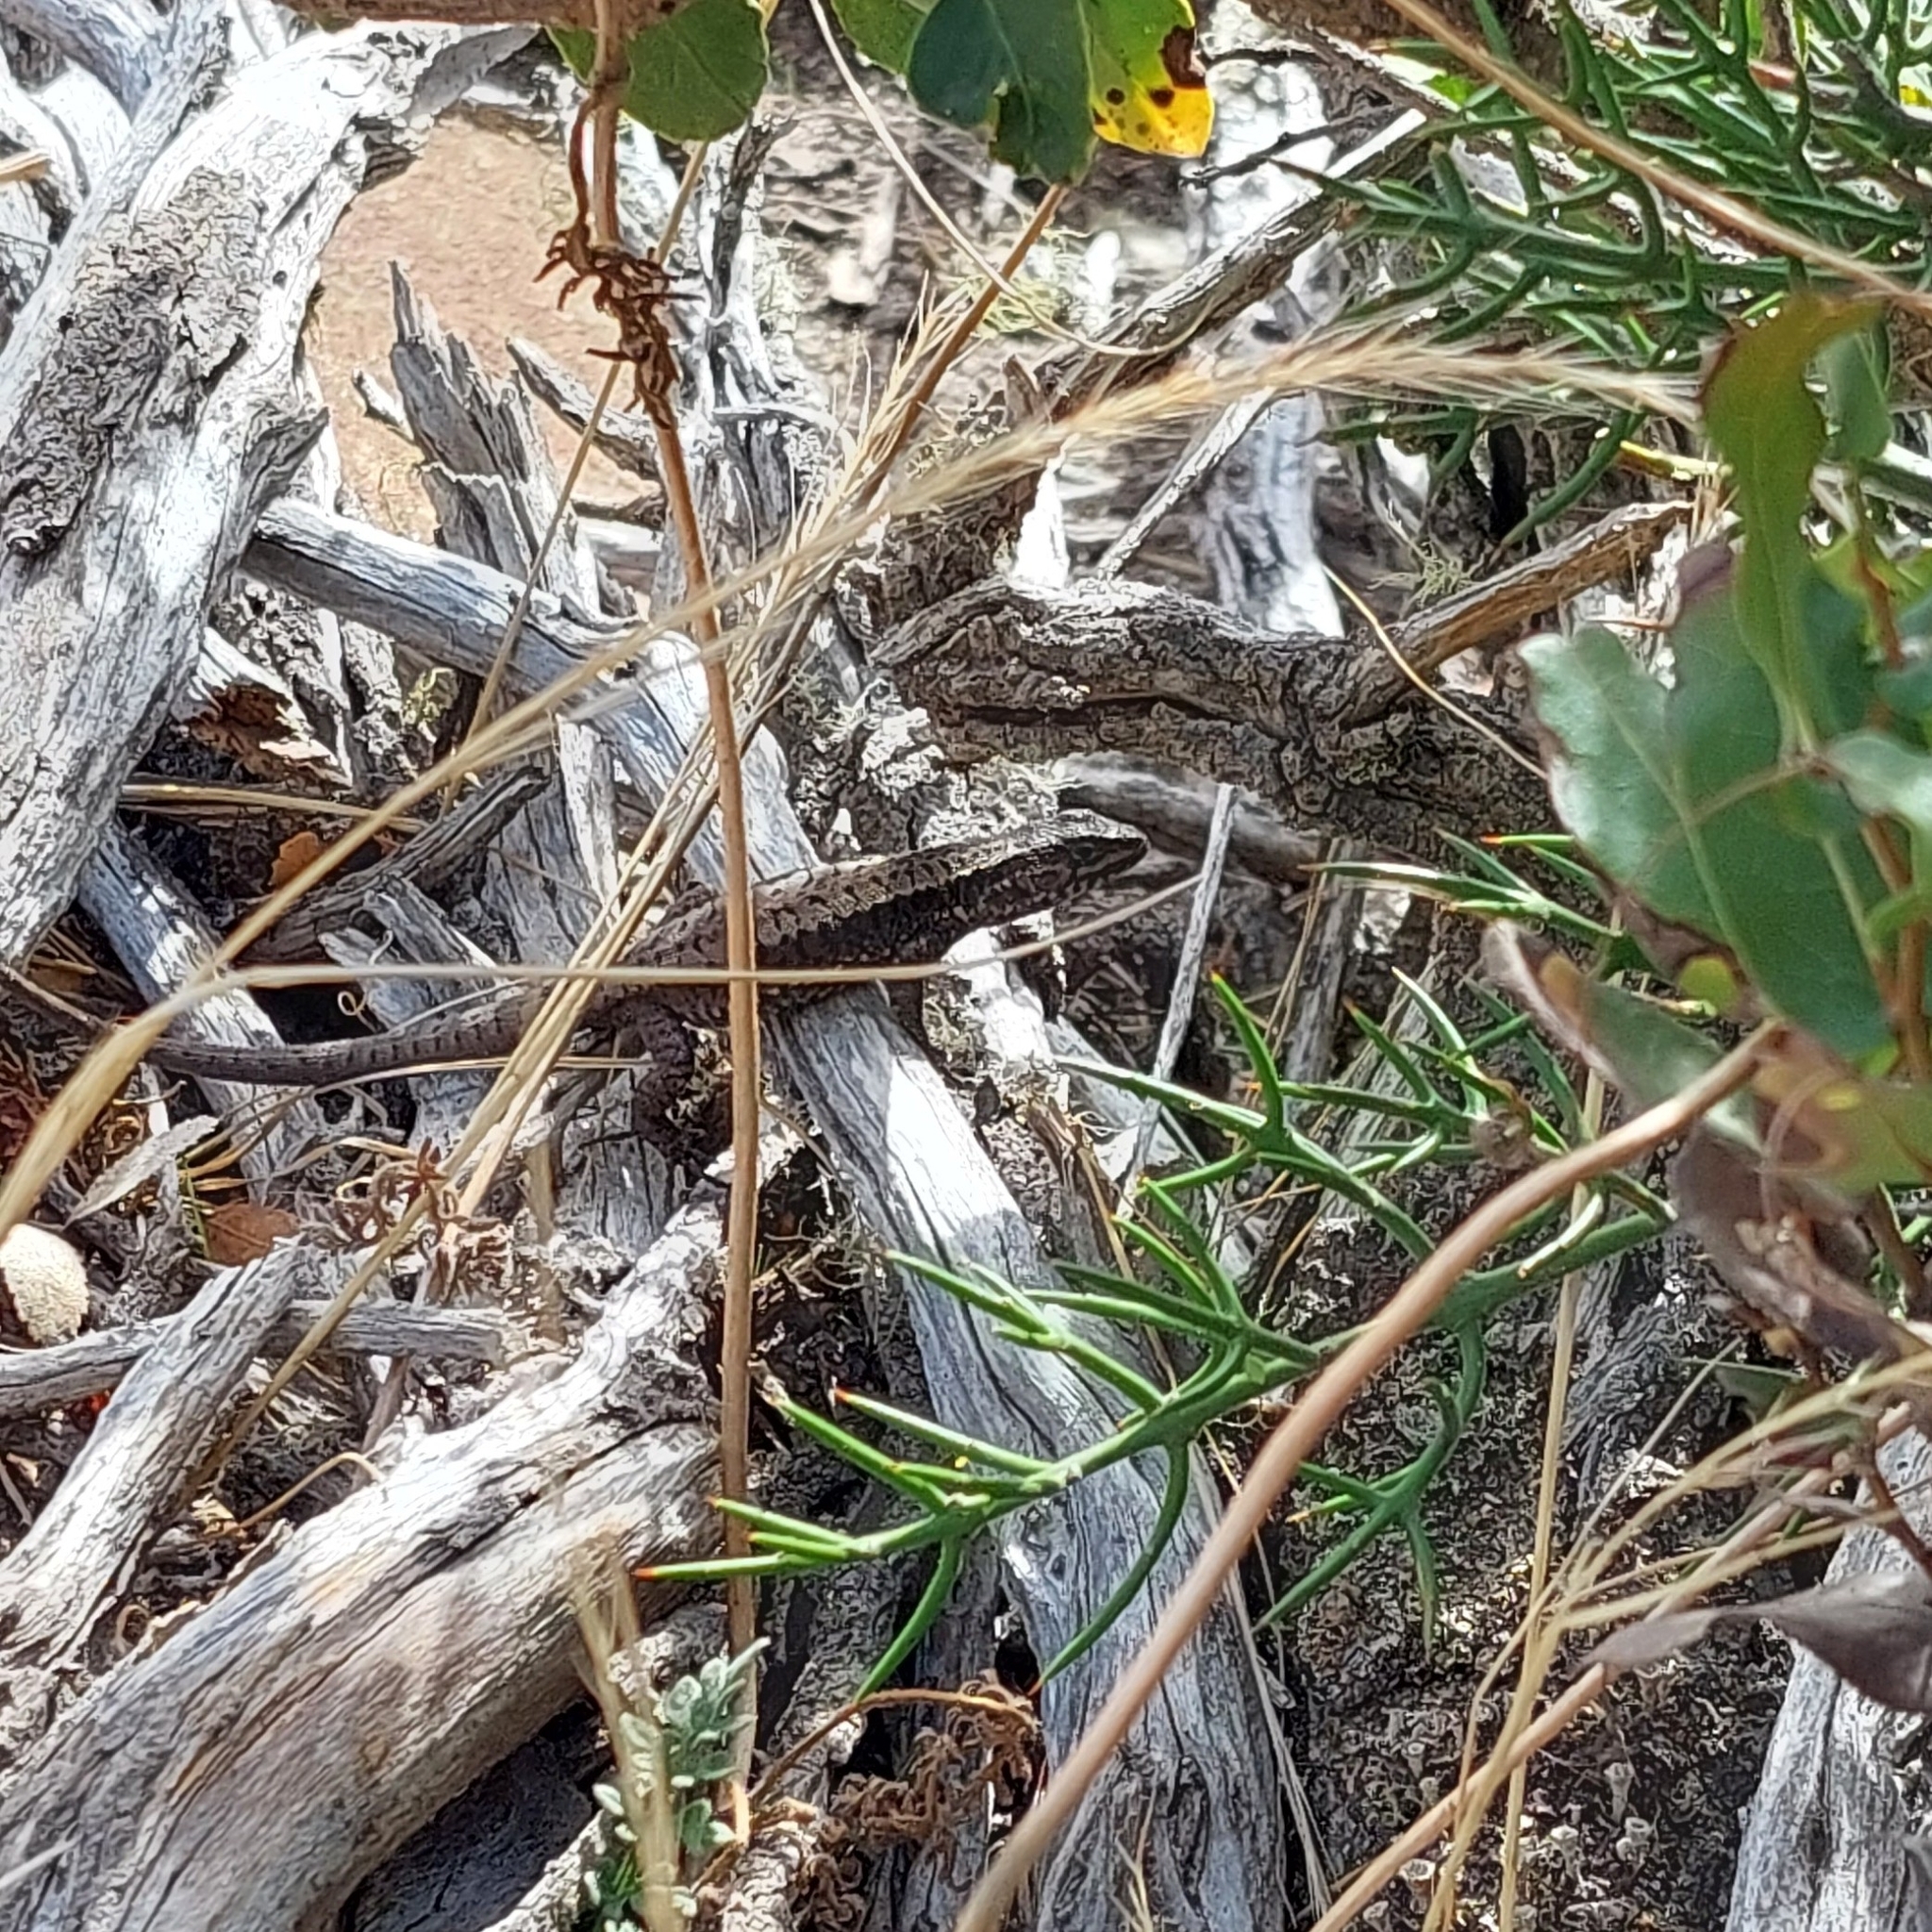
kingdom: Animalia
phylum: Chordata
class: Squamata
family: Liolaemidae
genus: Liolaemus
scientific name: Liolaemus pictus
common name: Painted tree iguana
